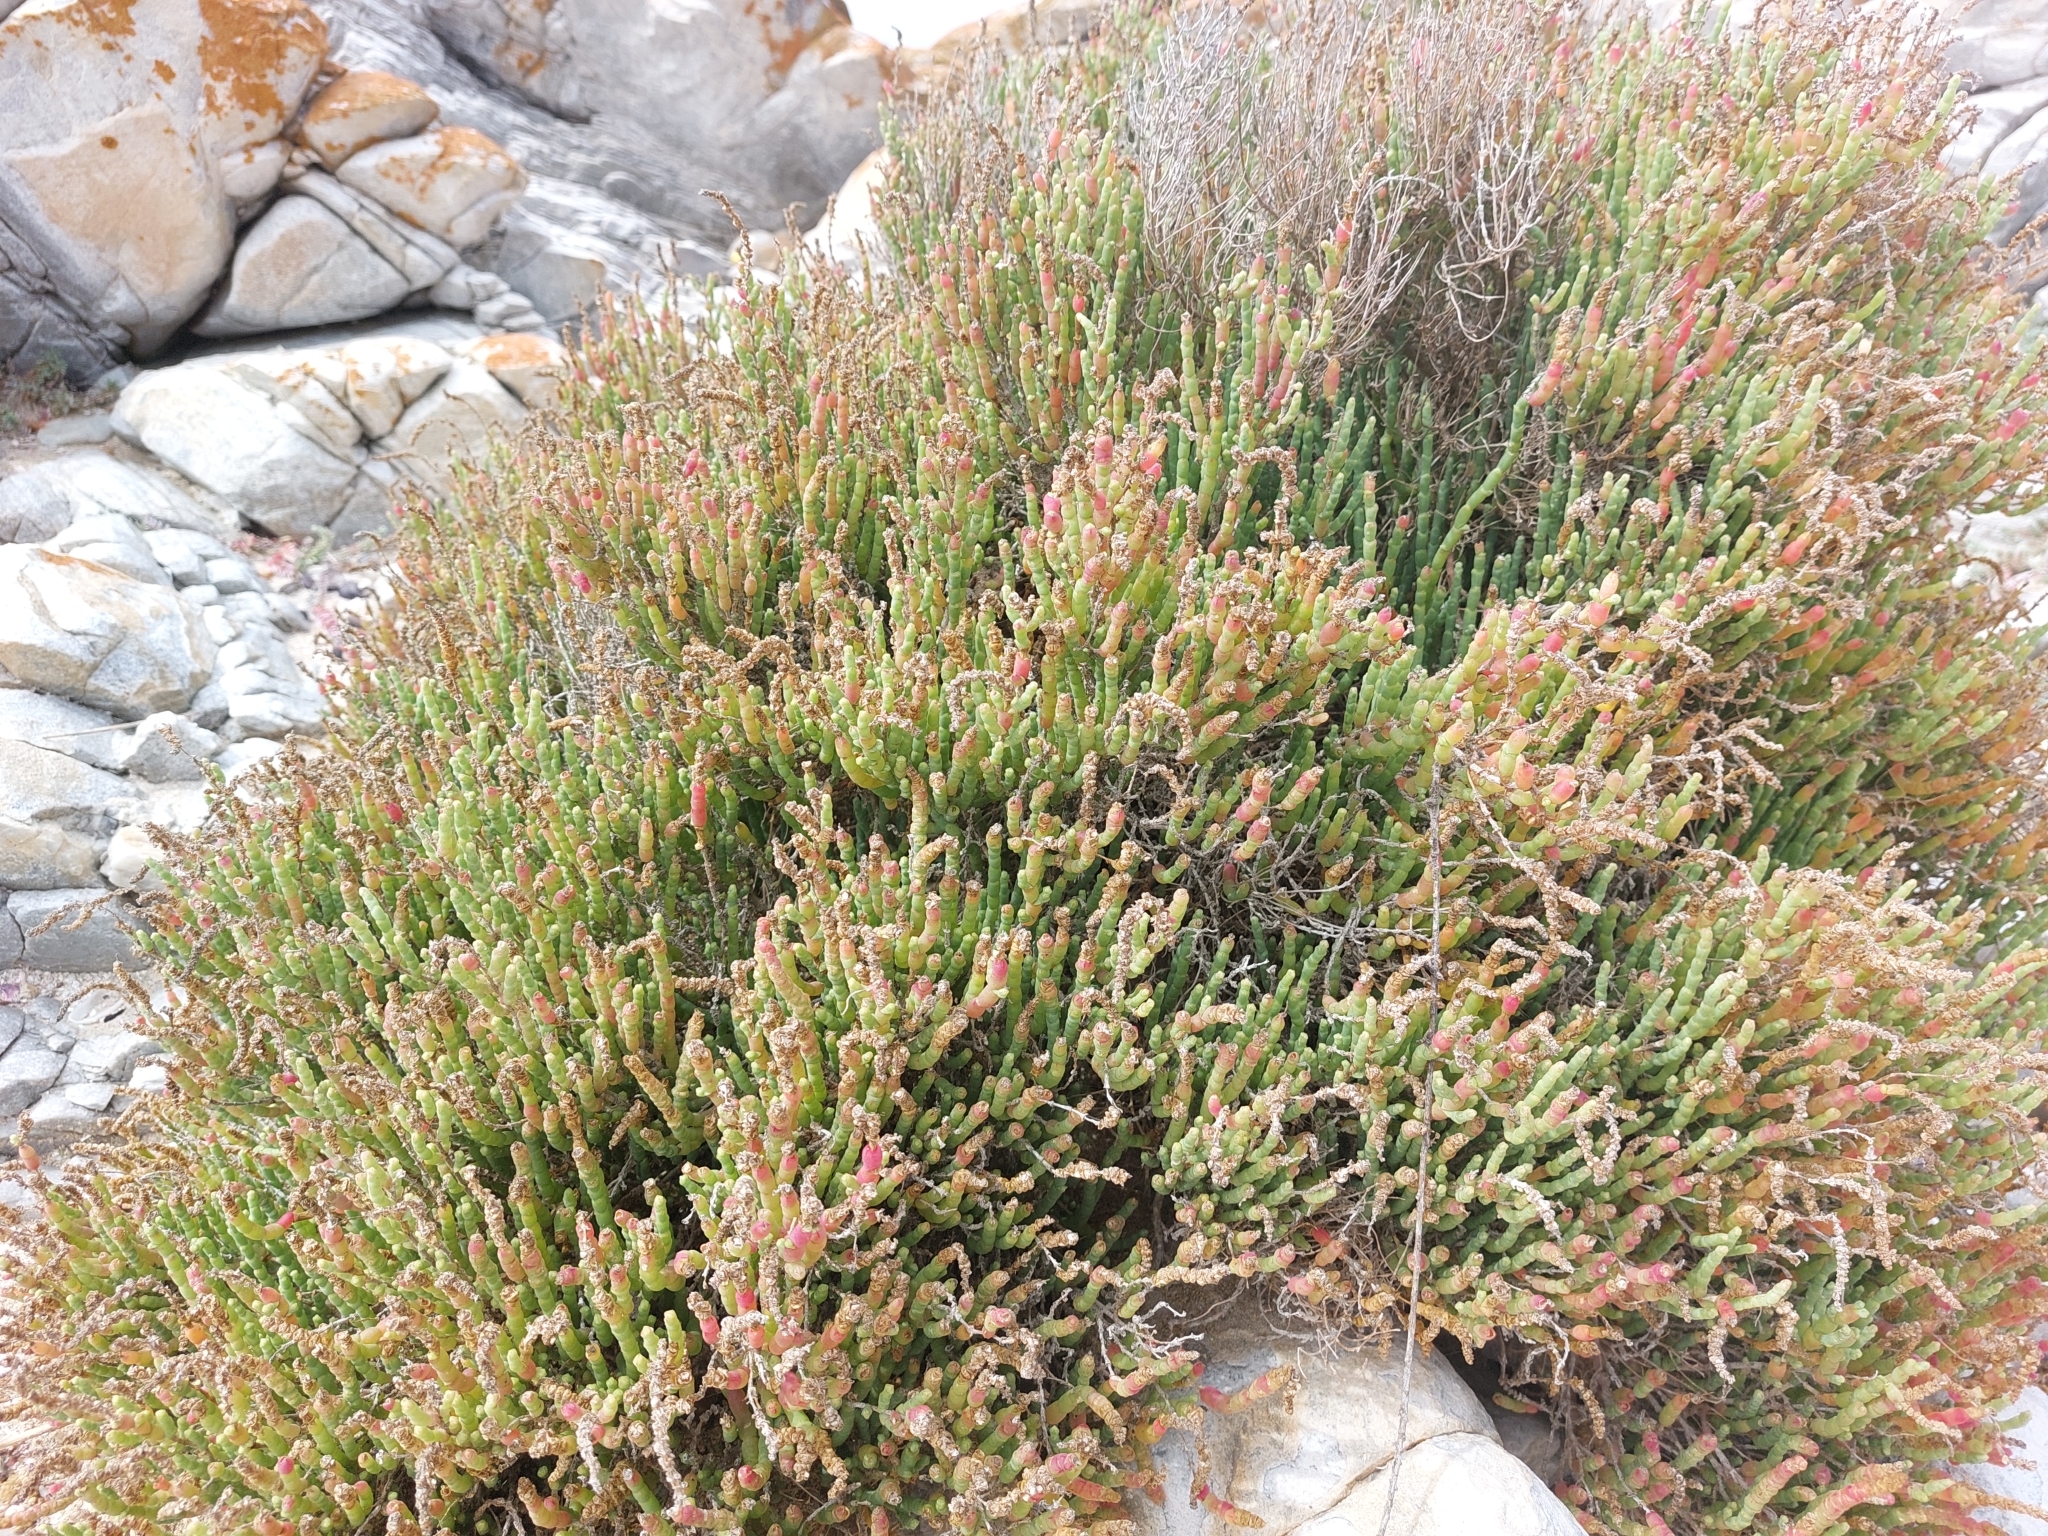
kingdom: Plantae
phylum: Tracheophyta
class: Magnoliopsida
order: Caryophyllales
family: Amaranthaceae
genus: Salicornia
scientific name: Salicornia littorea
